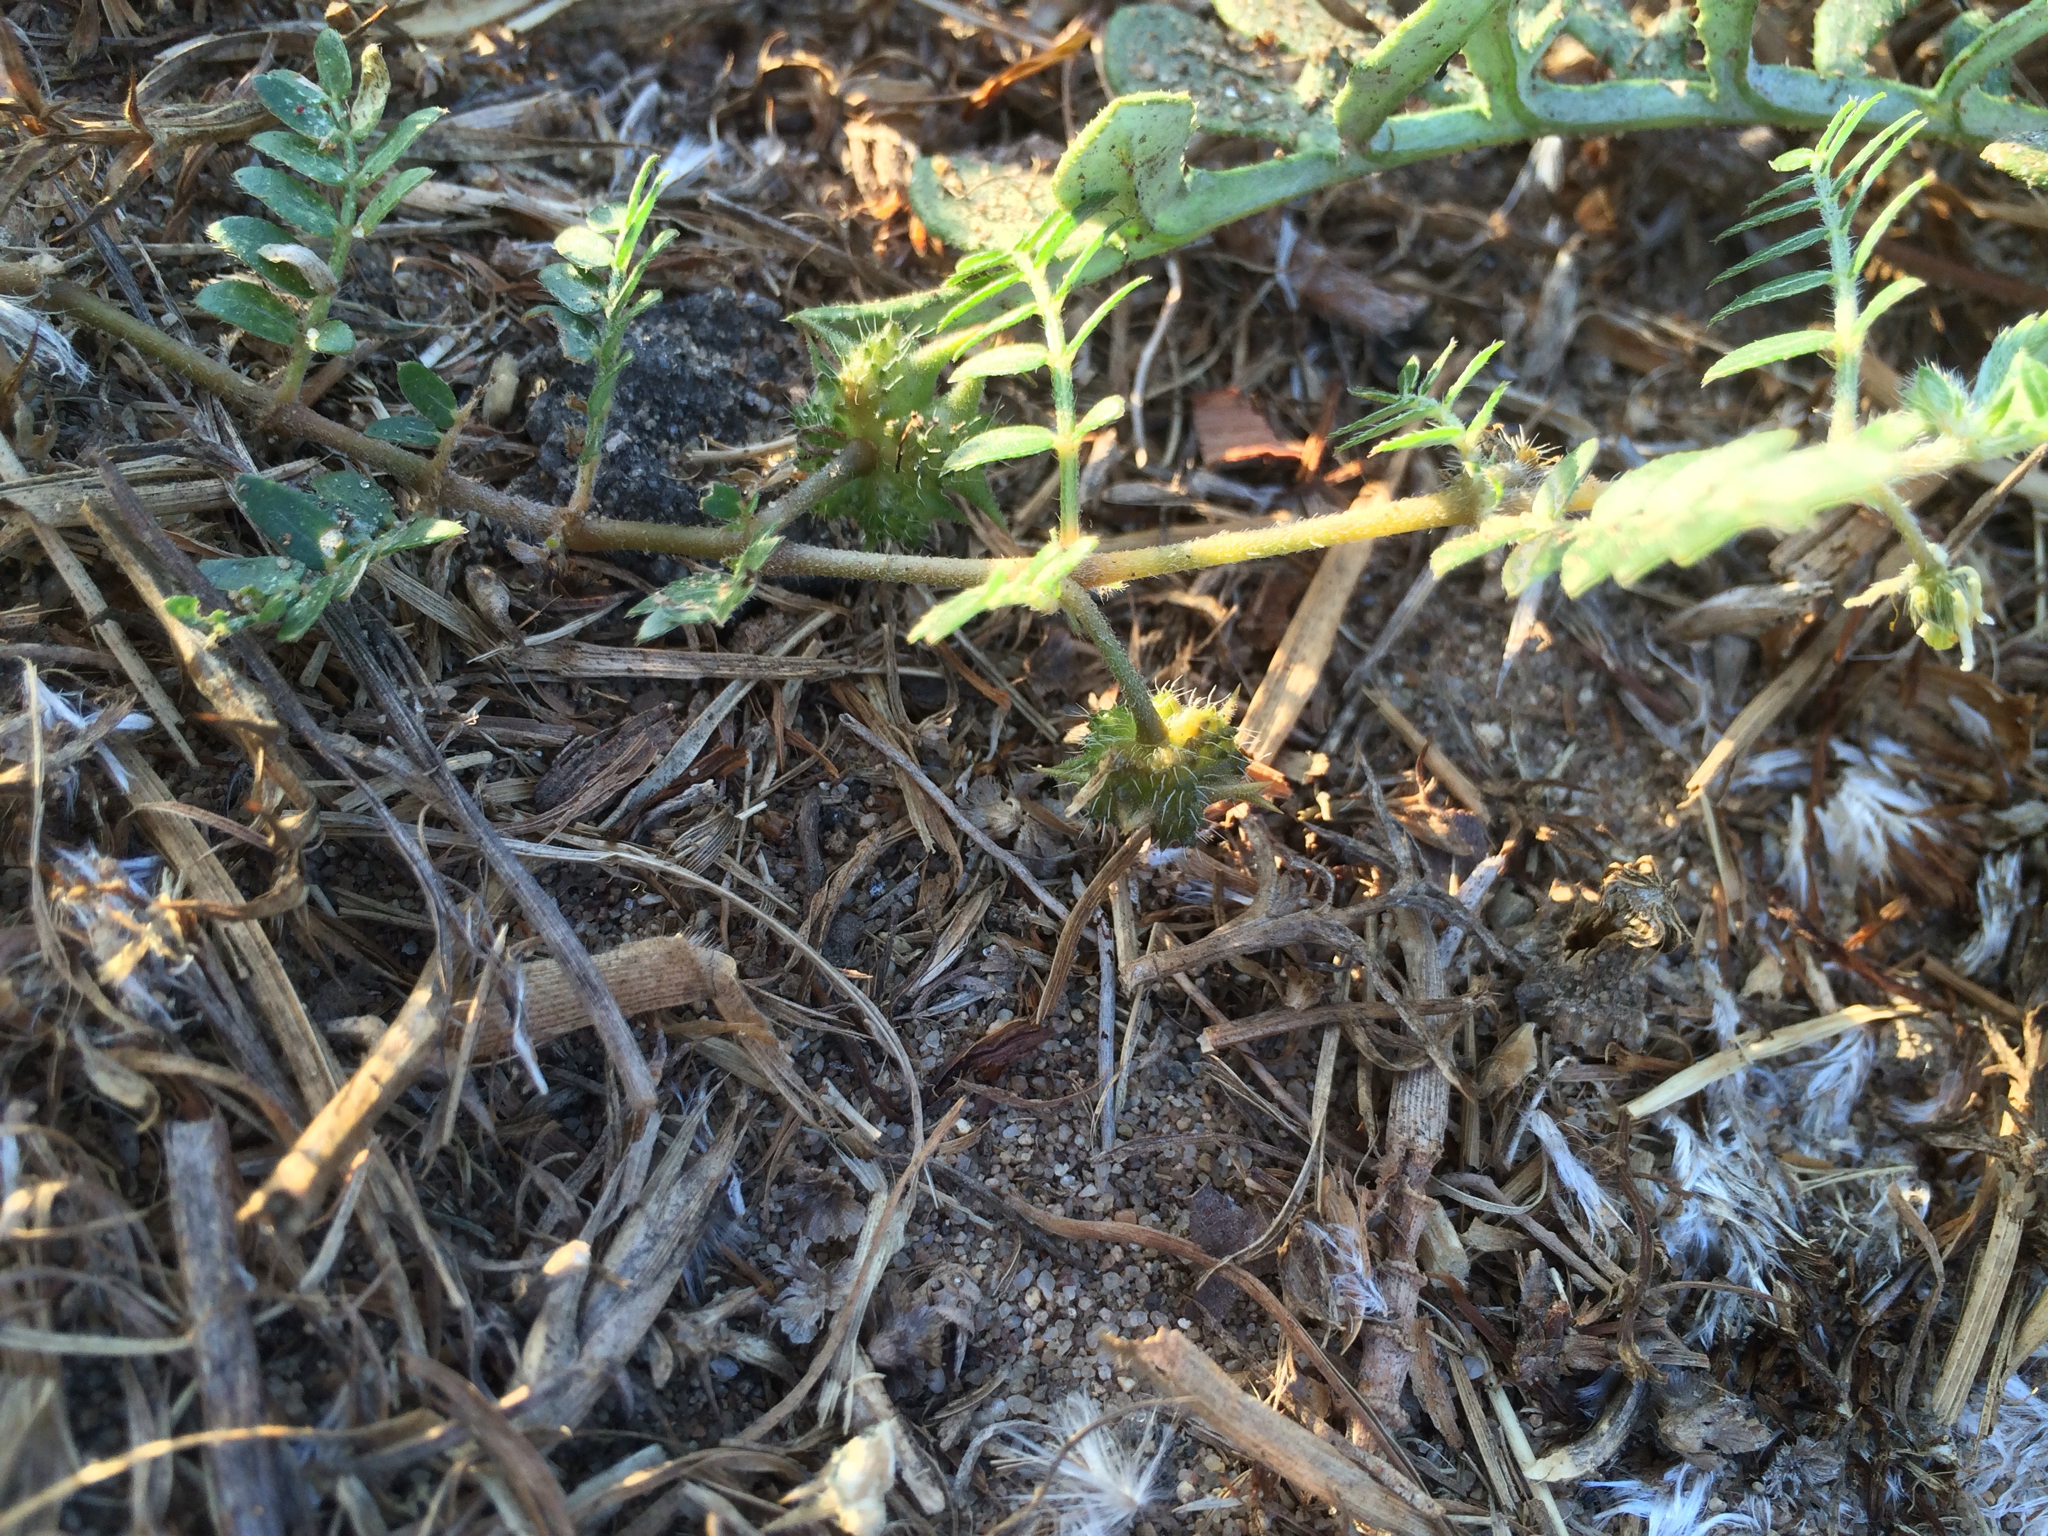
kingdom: Plantae
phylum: Tracheophyta
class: Magnoliopsida
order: Zygophyllales
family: Zygophyllaceae
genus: Tribulus
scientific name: Tribulus terrestris
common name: Puncturevine
